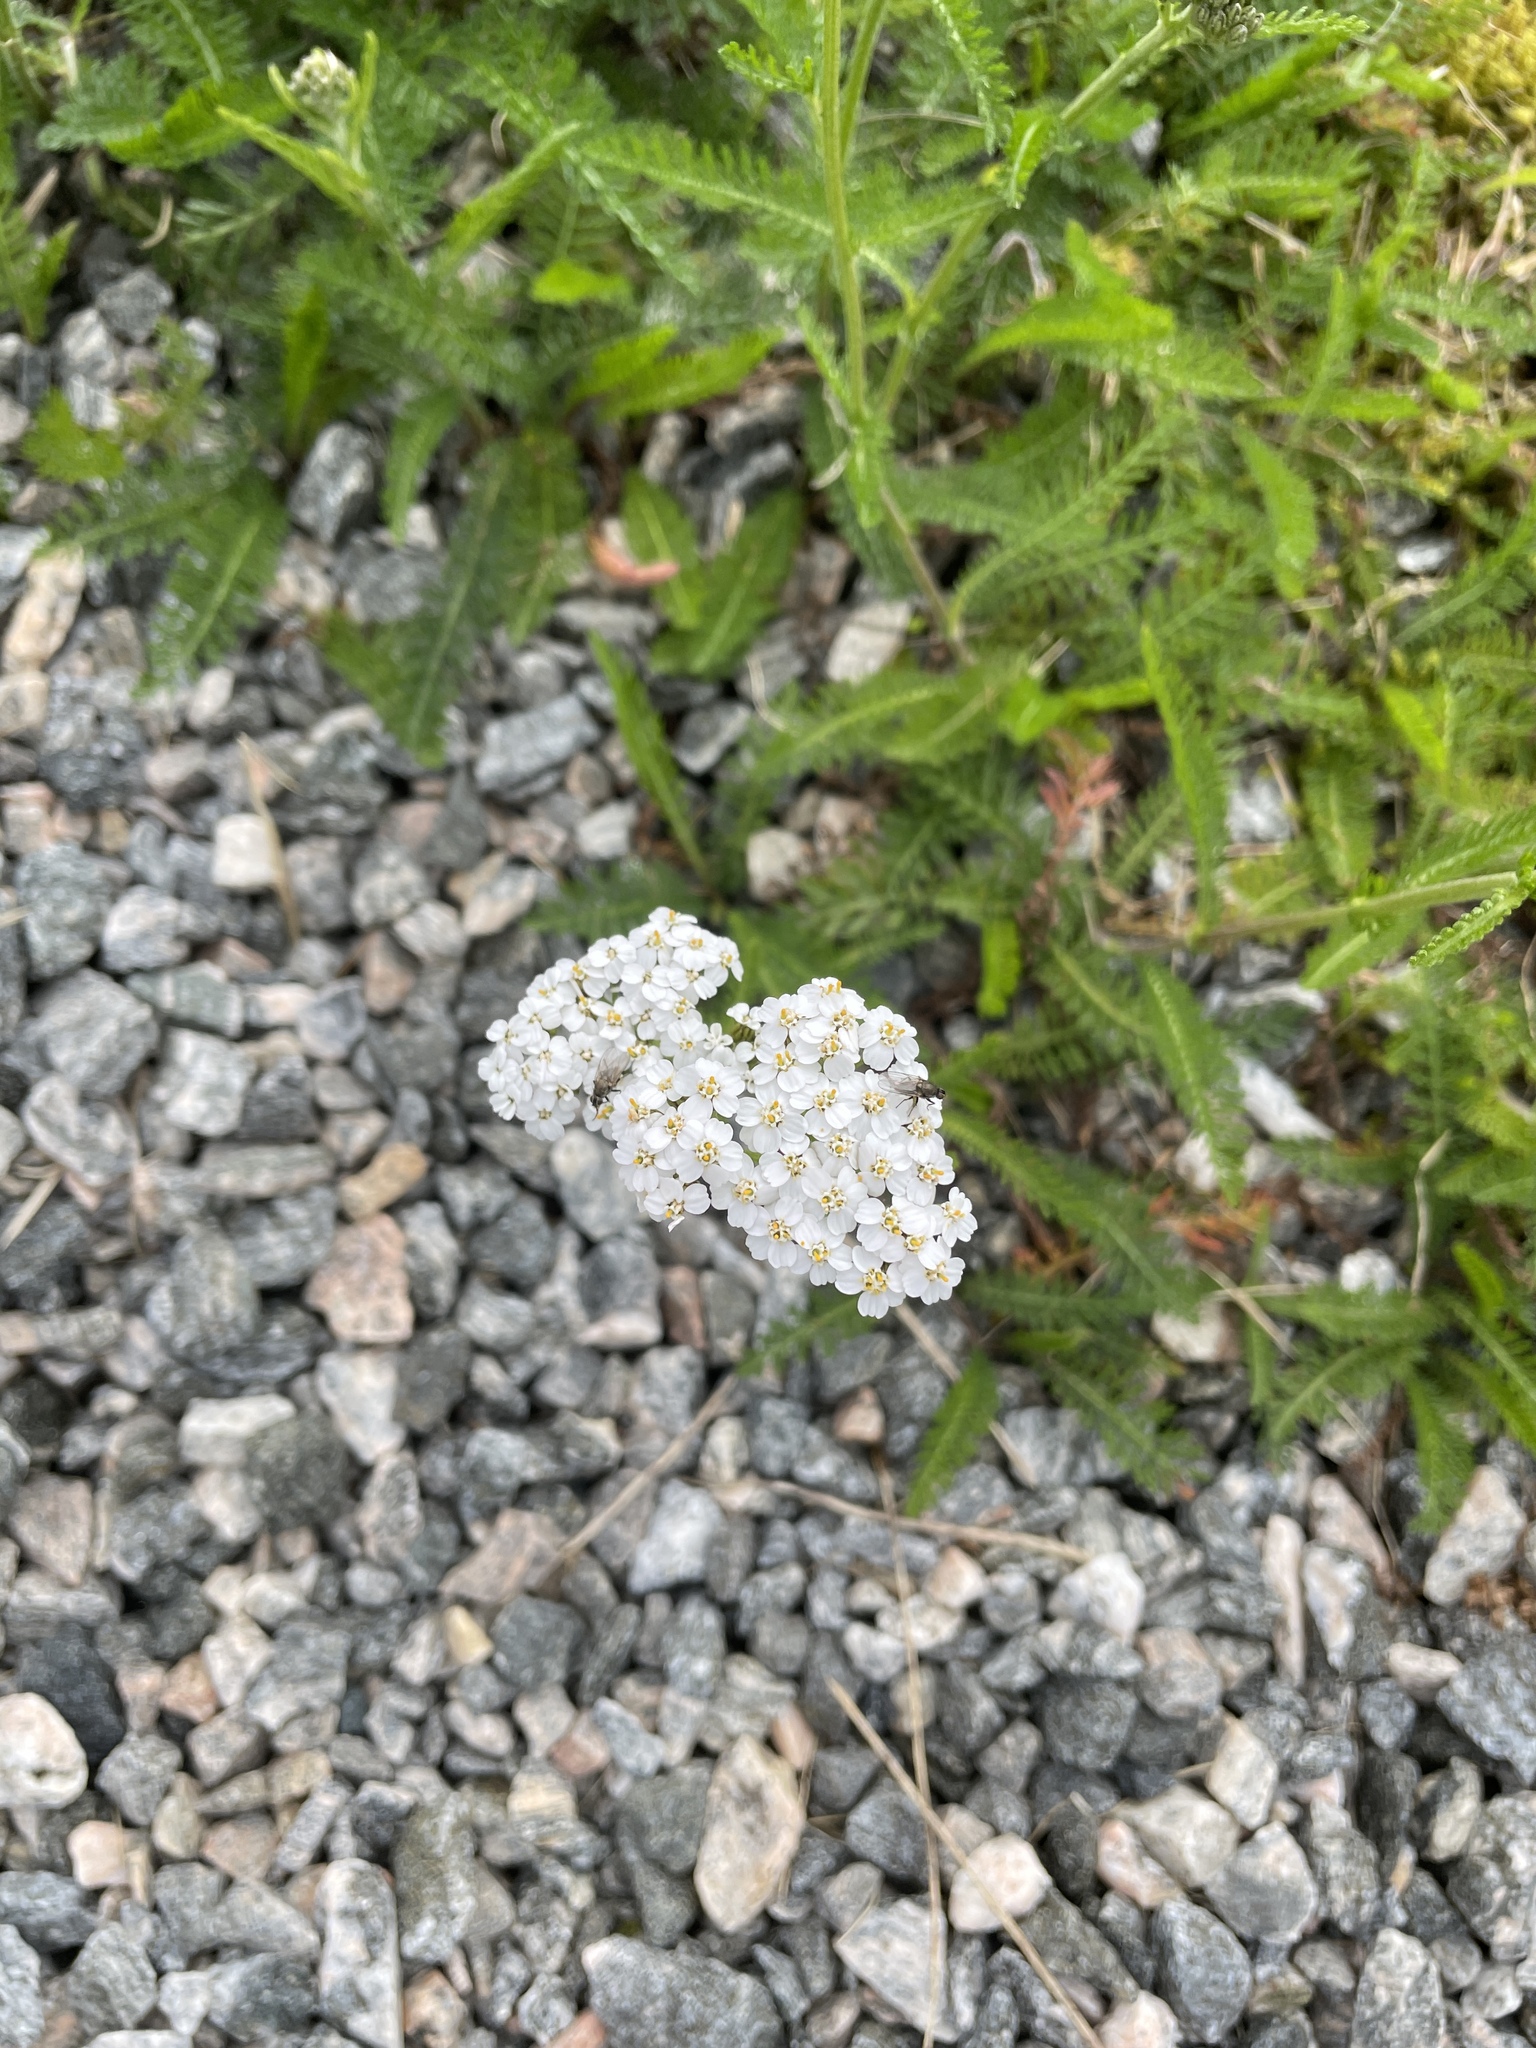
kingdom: Plantae
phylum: Tracheophyta
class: Magnoliopsida
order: Asterales
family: Asteraceae
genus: Achillea
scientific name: Achillea millefolium
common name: Yarrow
